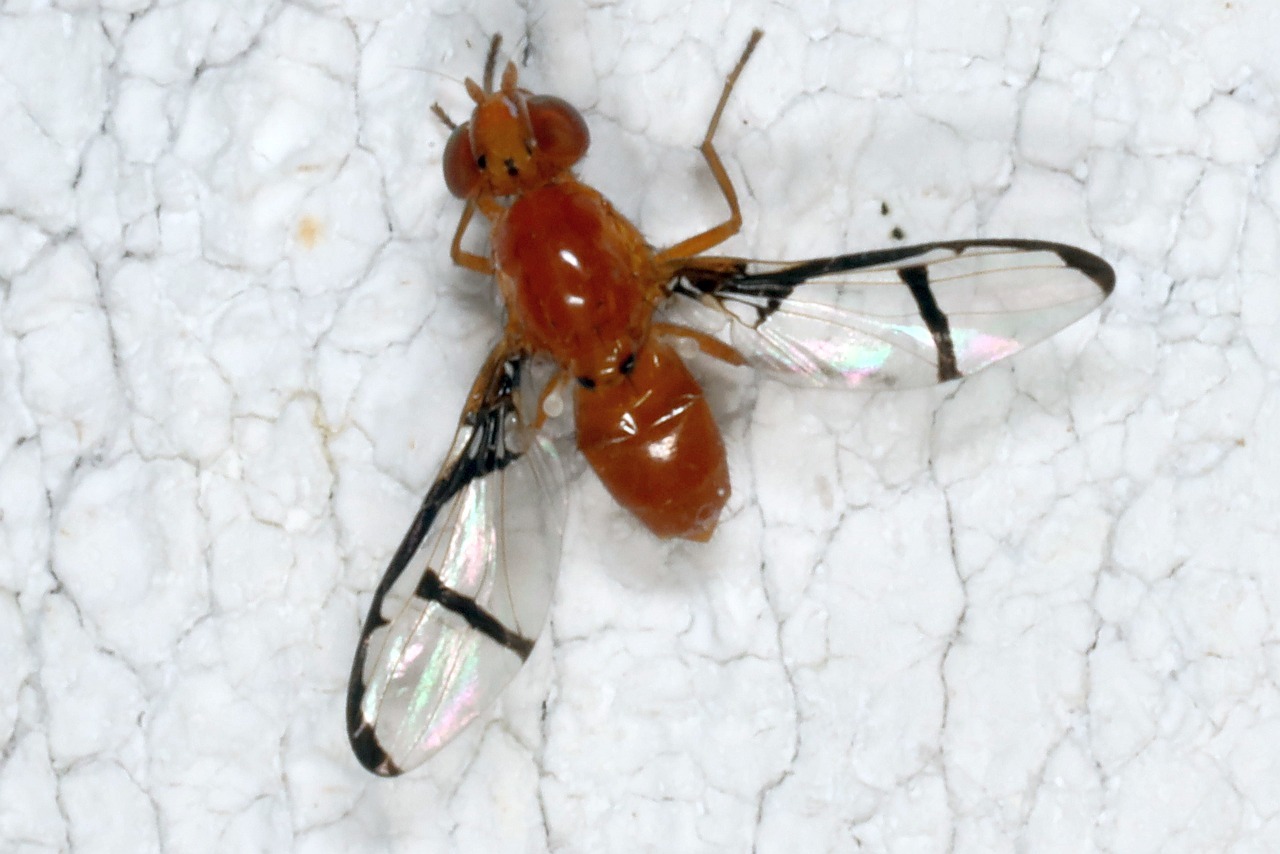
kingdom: Animalia
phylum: Arthropoda
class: Insecta
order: Diptera
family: Ulidiidae
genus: Xanthacrona
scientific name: Xanthacrona phyllochaeta
